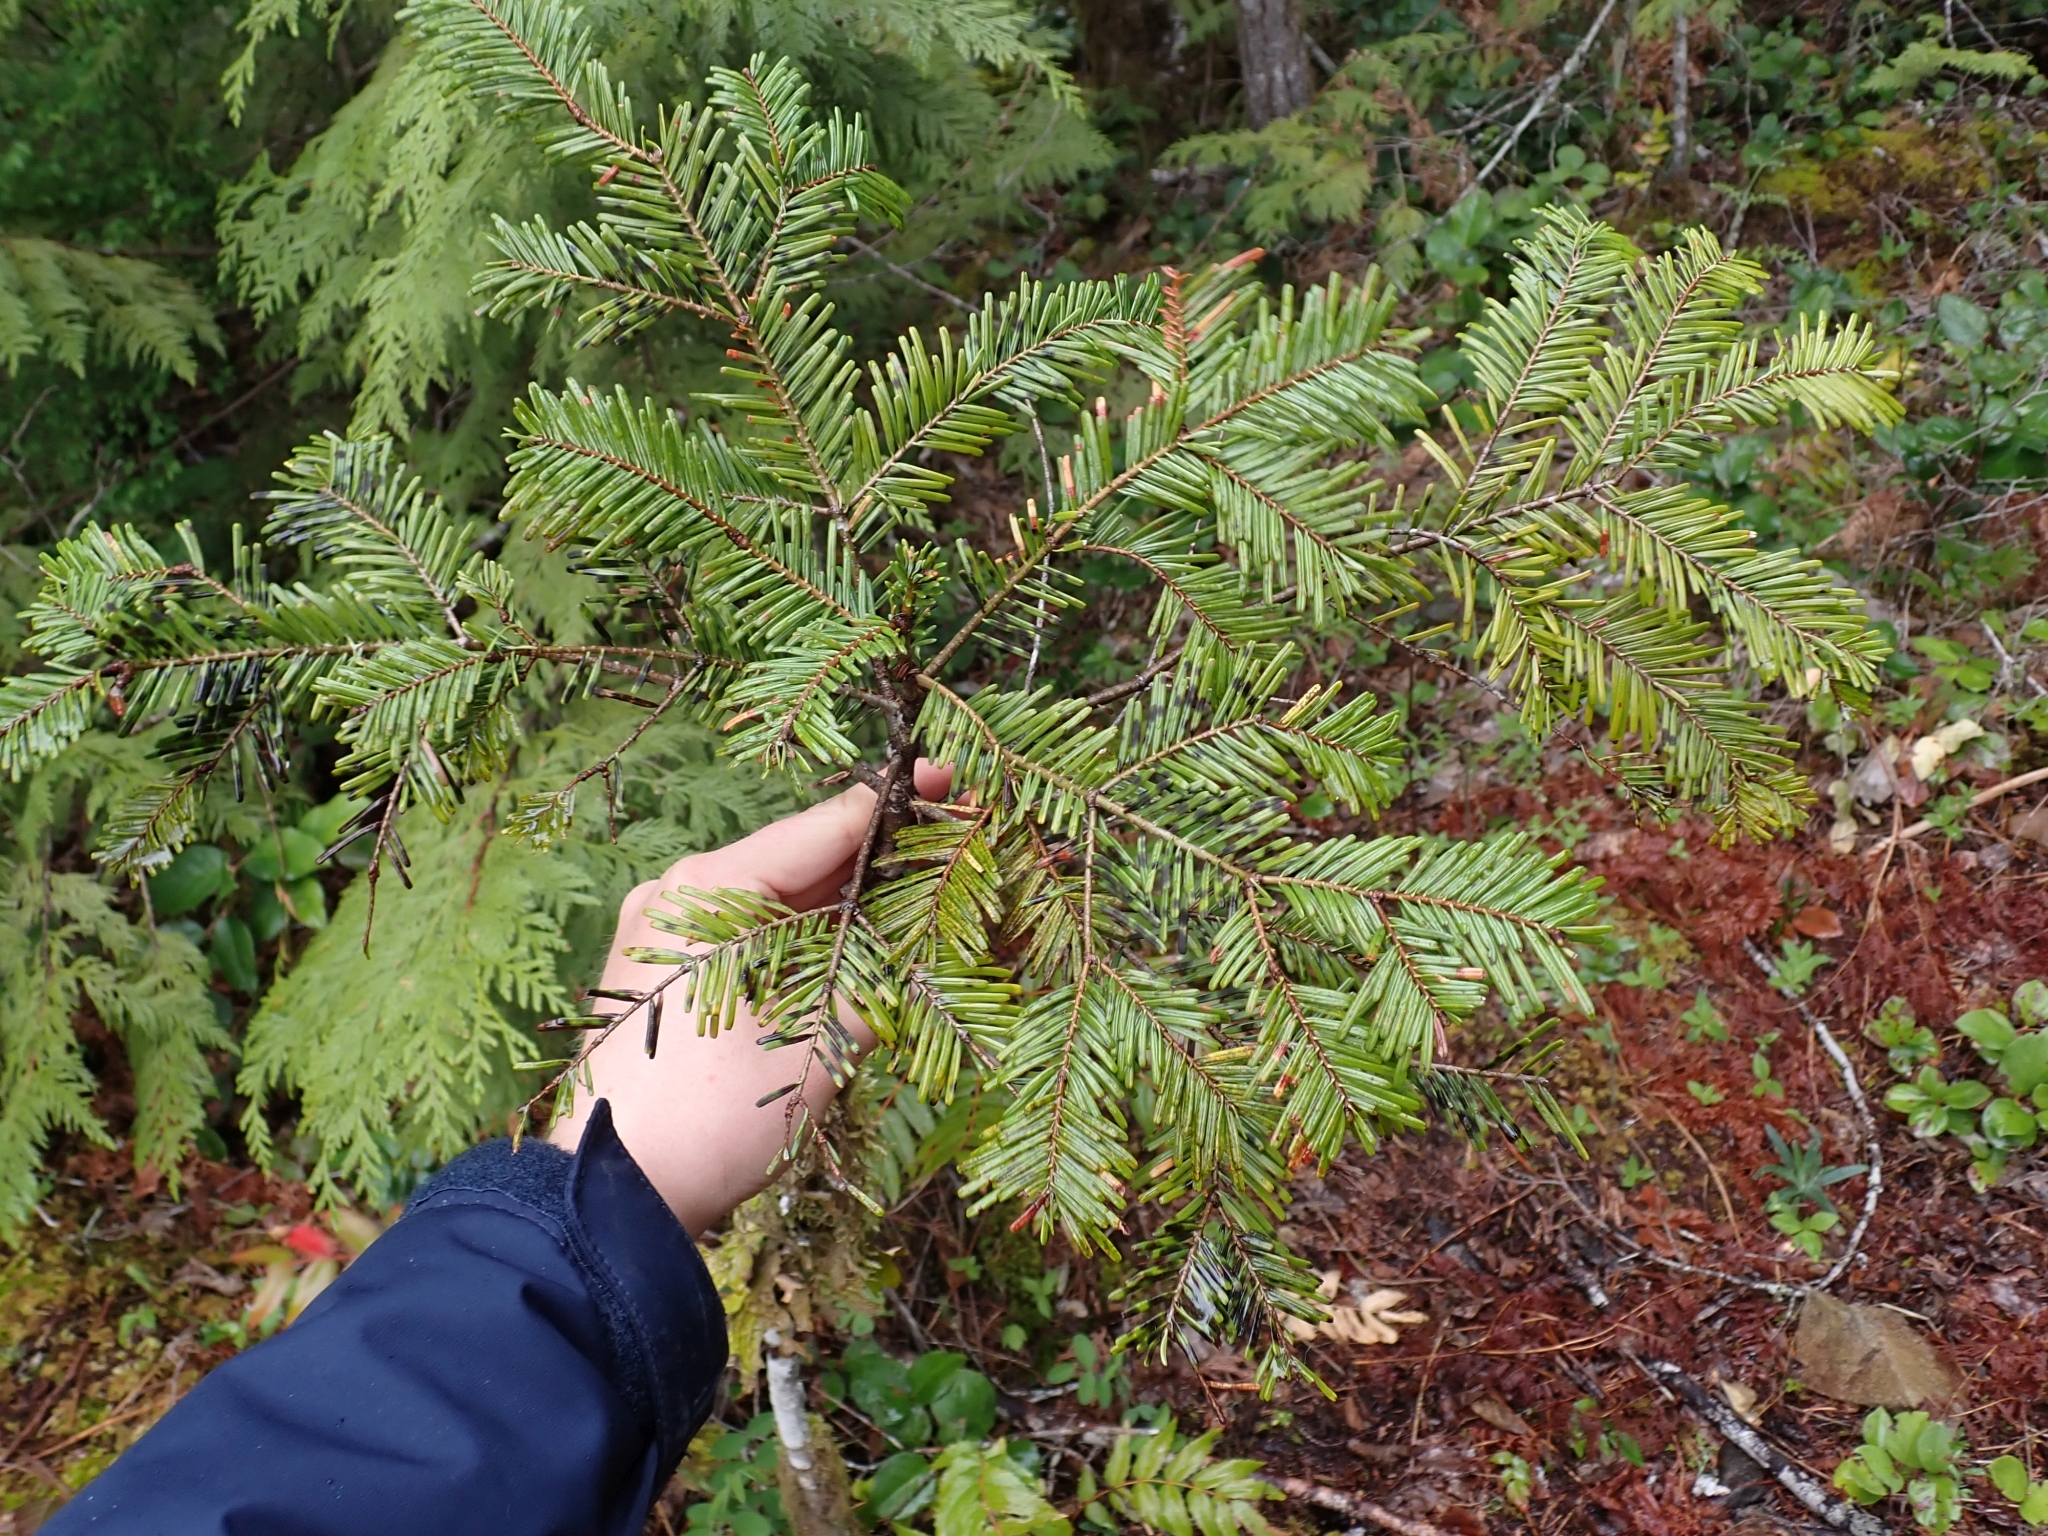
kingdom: Plantae
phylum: Tracheophyta
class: Pinopsida
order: Pinales
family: Pinaceae
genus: Abies
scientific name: Abies grandis
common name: Giant fir
